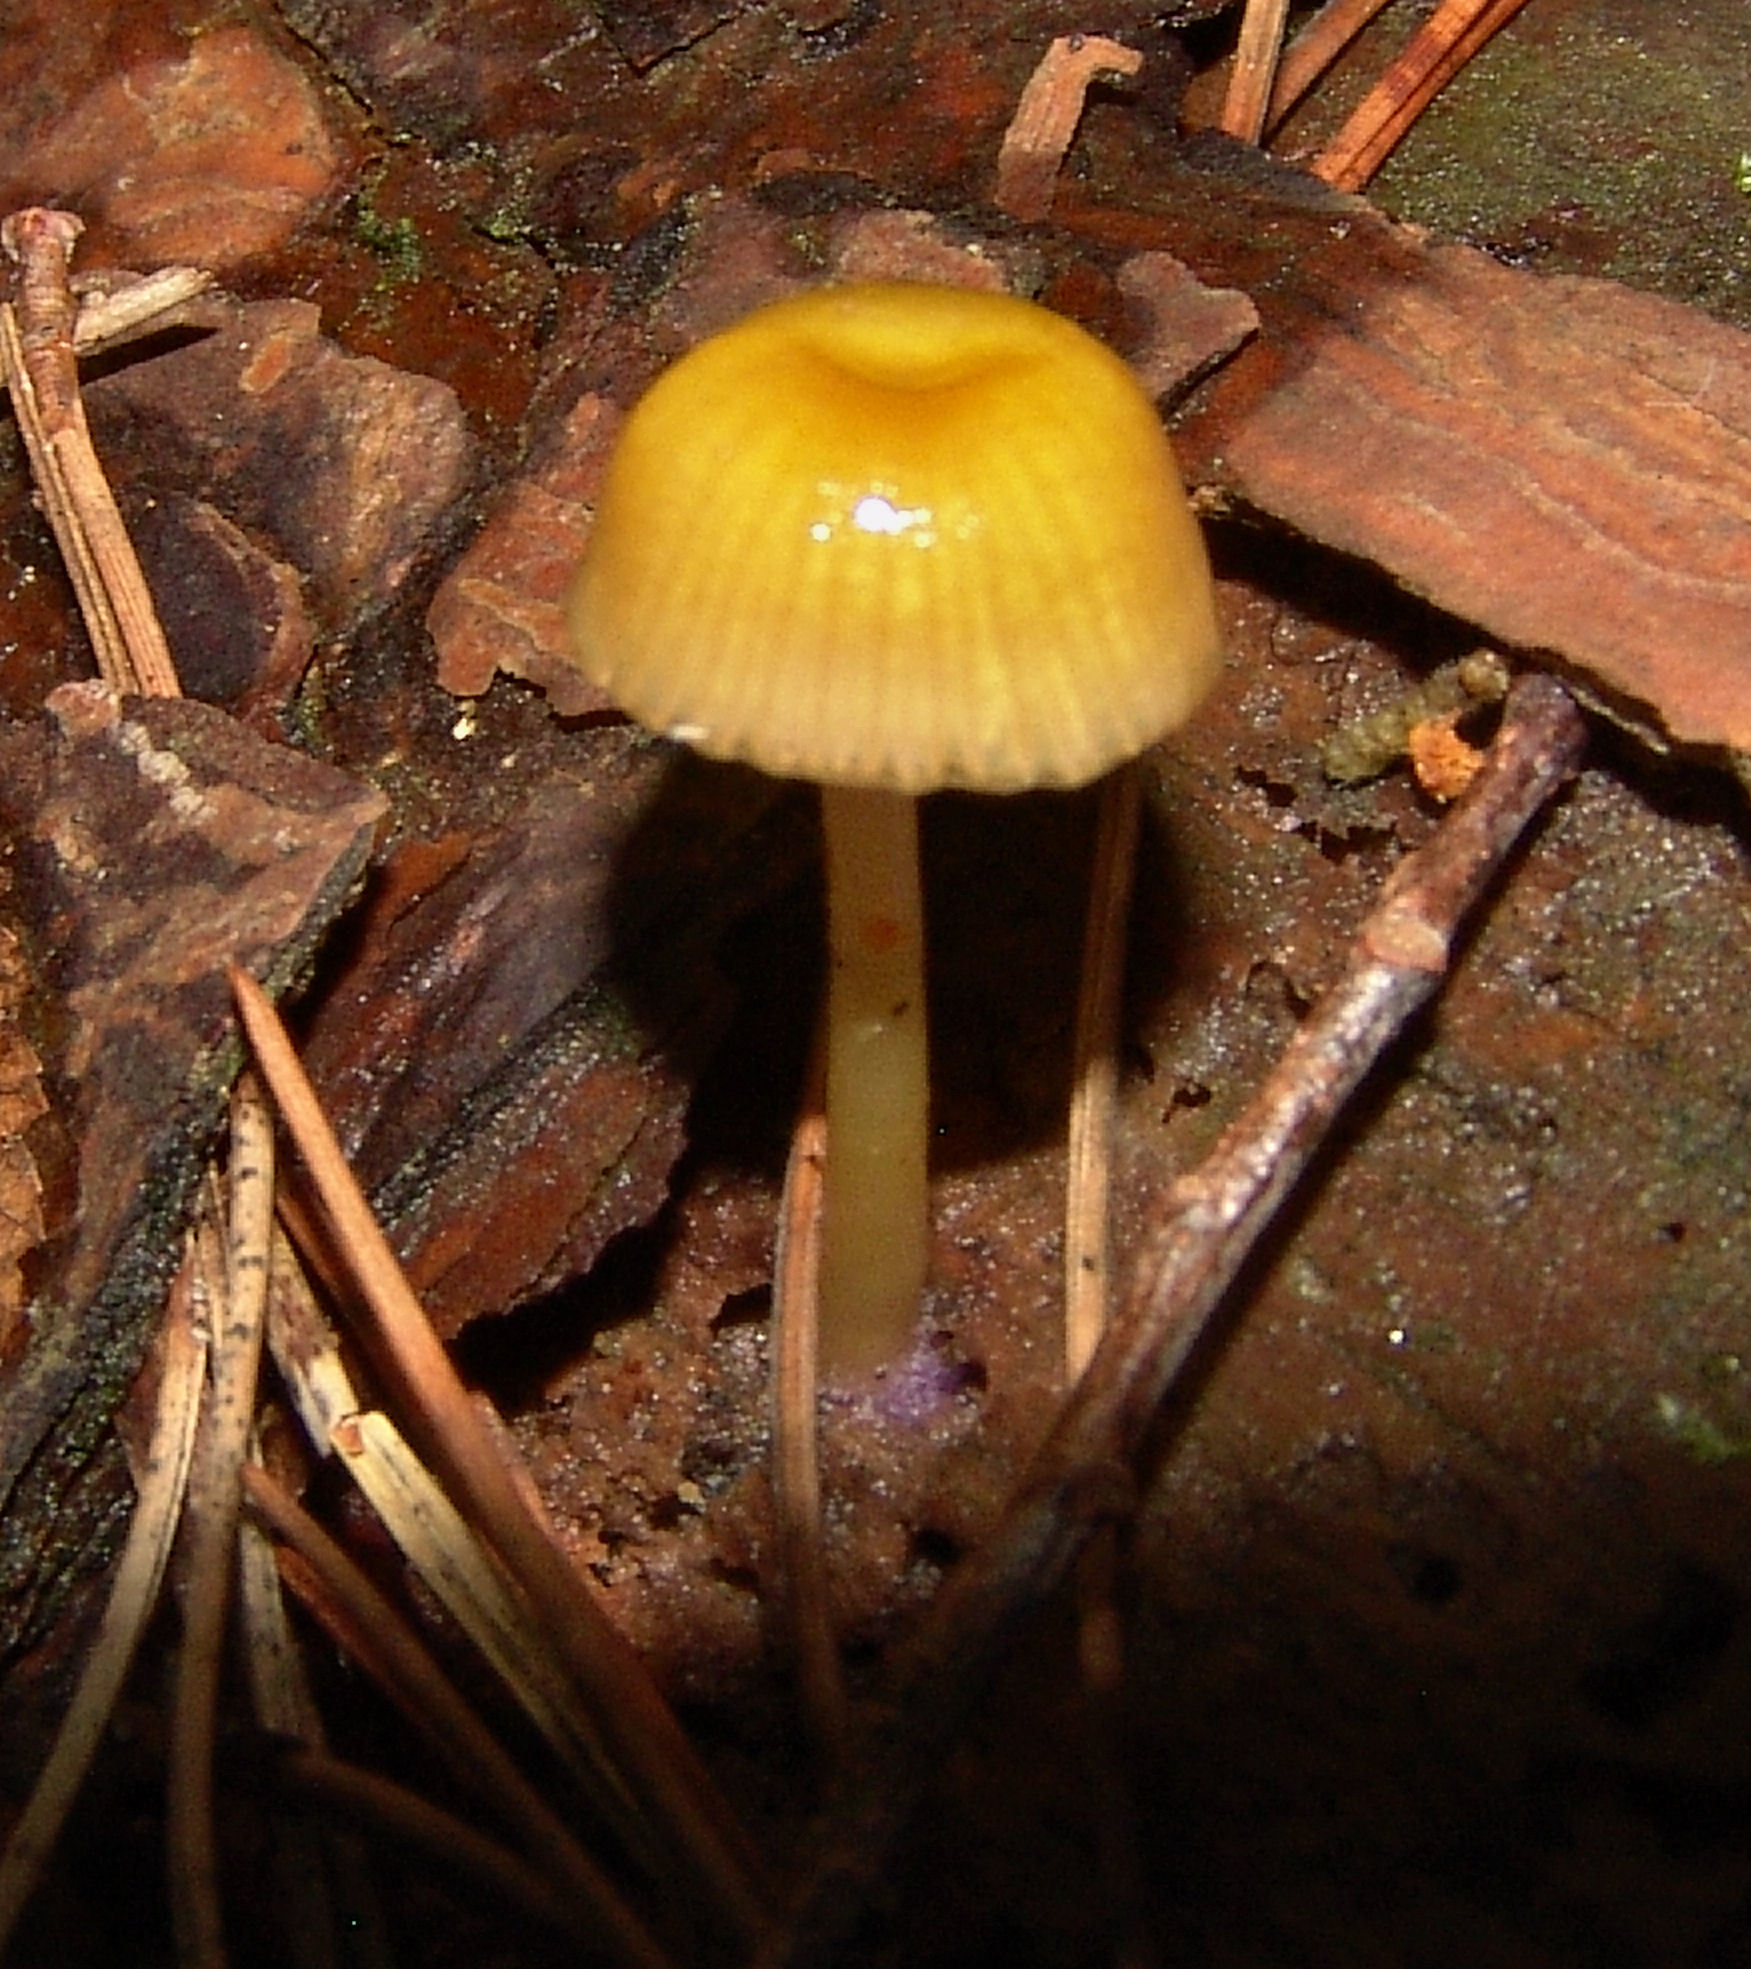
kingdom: Fungi
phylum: Basidiomycota
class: Agaricomycetes
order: Agaricales
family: Hygrophoraceae
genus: Chromosera
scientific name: Chromosera cyanophylla
